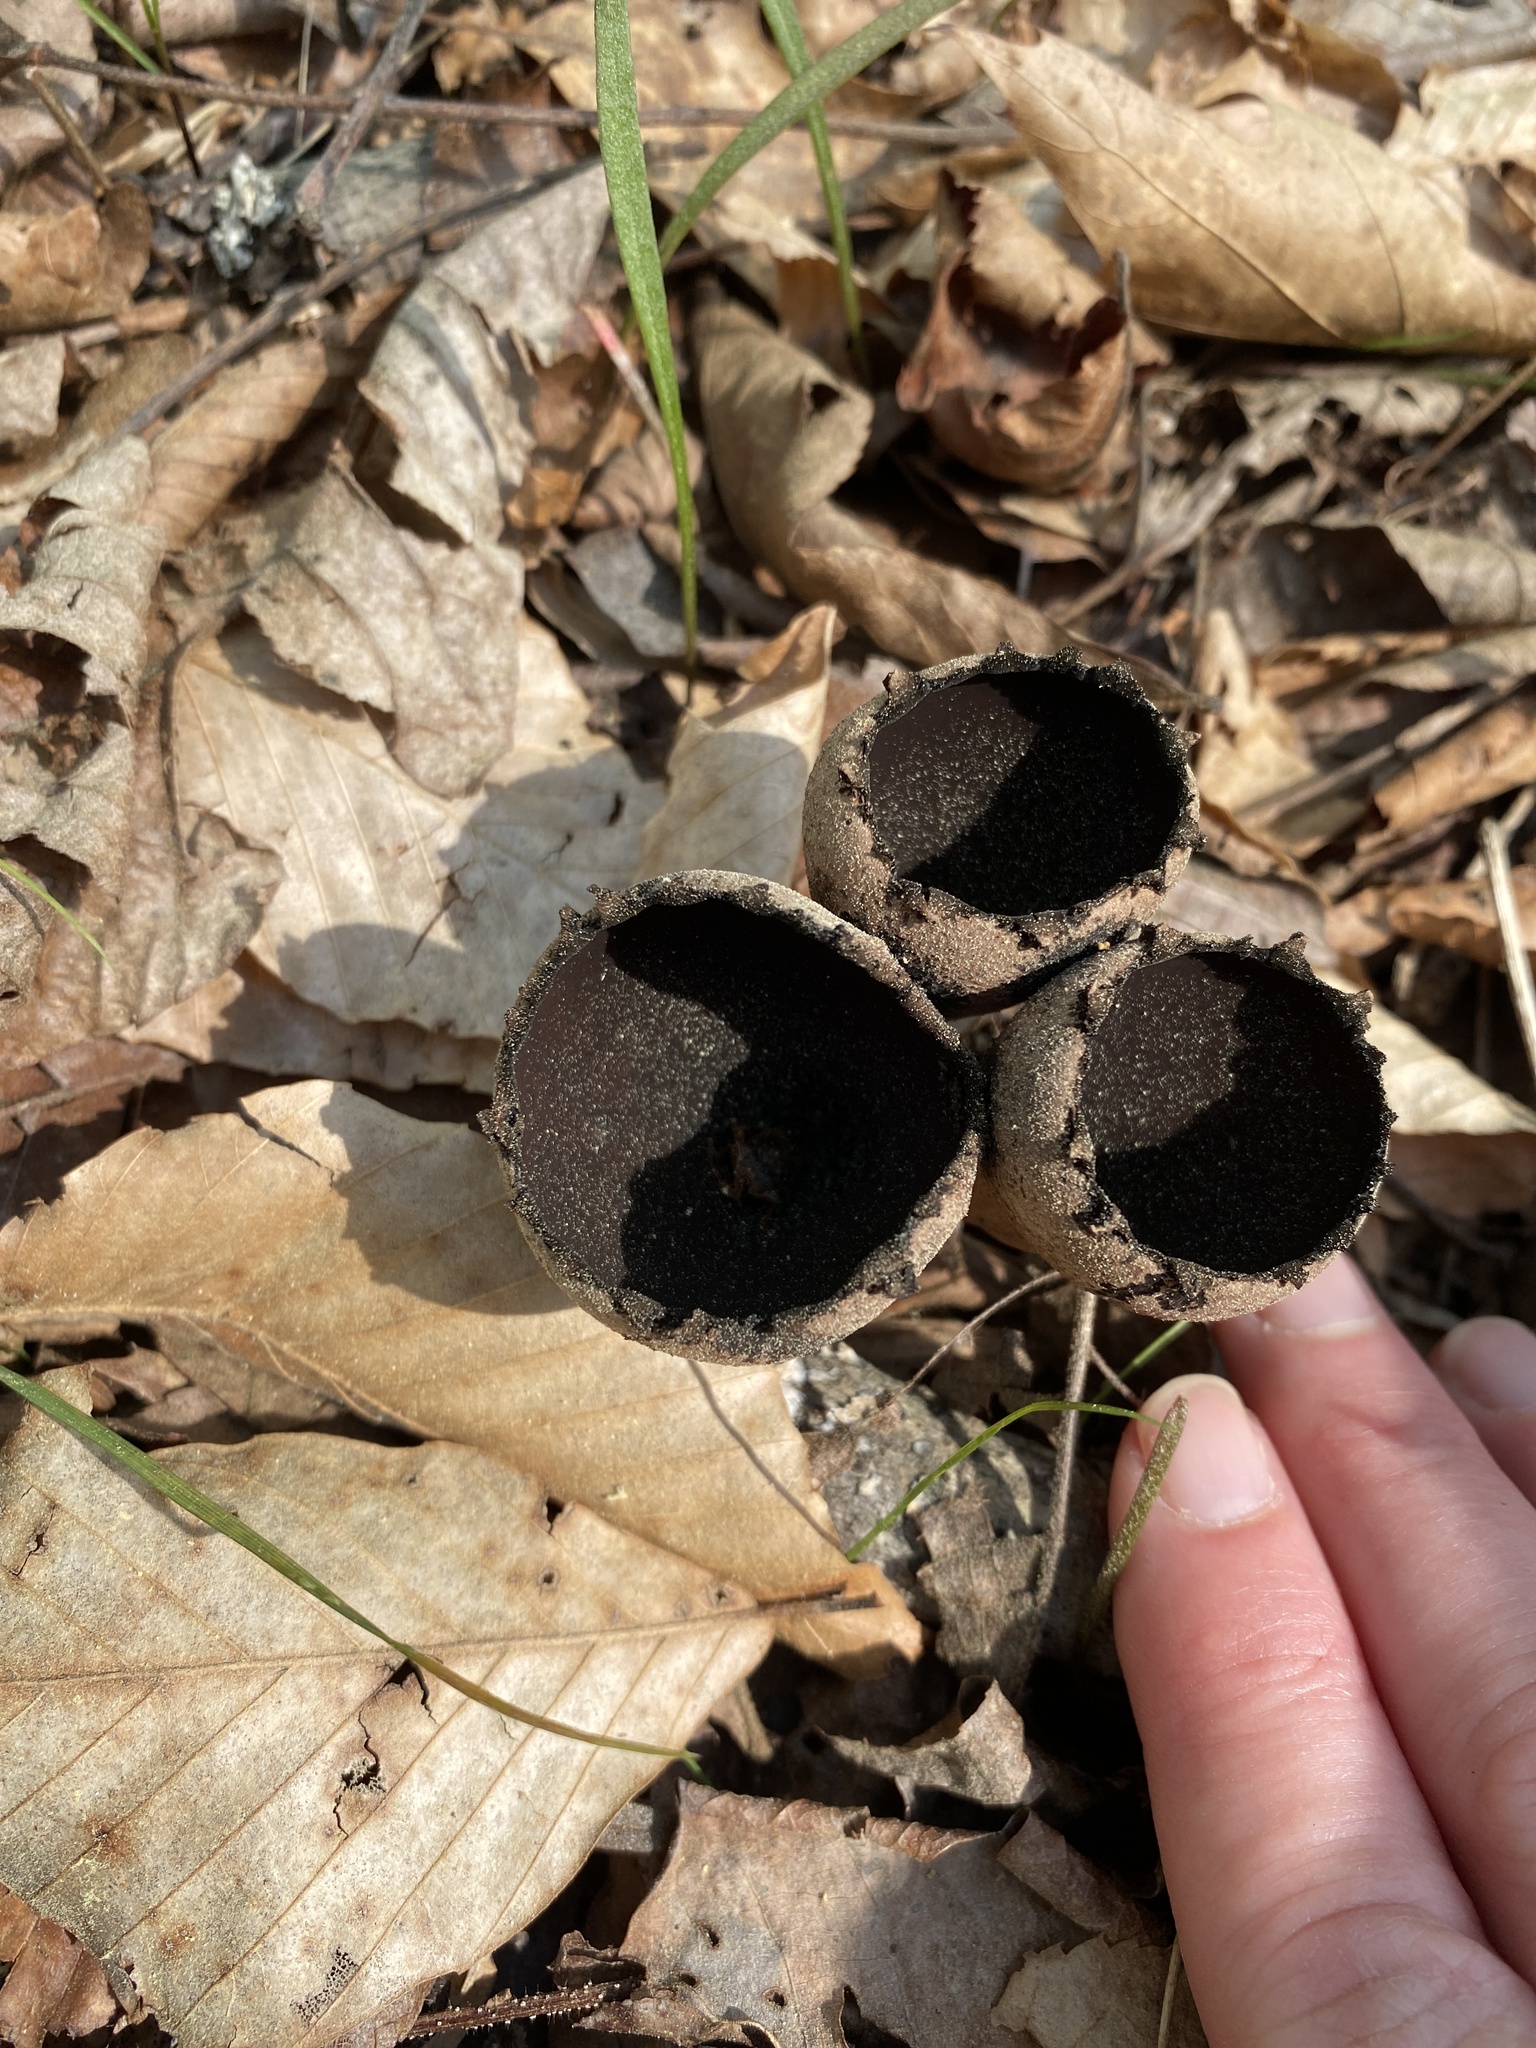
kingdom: Fungi
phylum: Ascomycota
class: Pezizomycetes
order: Pezizales
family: Sarcosomataceae
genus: Urnula
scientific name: Urnula craterium
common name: Devil's urn
